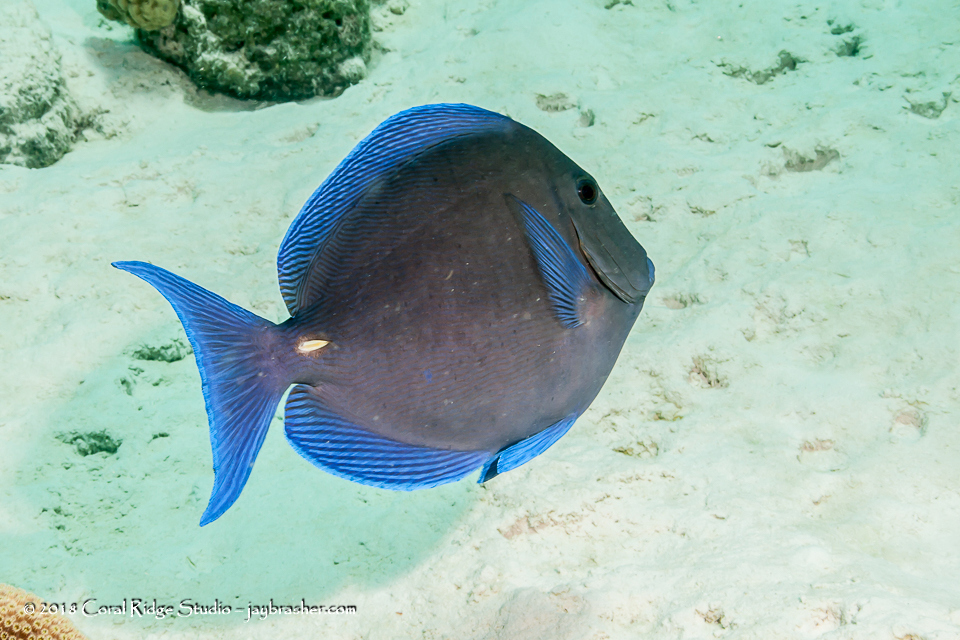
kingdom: Animalia
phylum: Chordata
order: Perciformes
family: Acanthuridae
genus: Acanthurus
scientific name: Acanthurus coeruleus
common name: Blue tang
